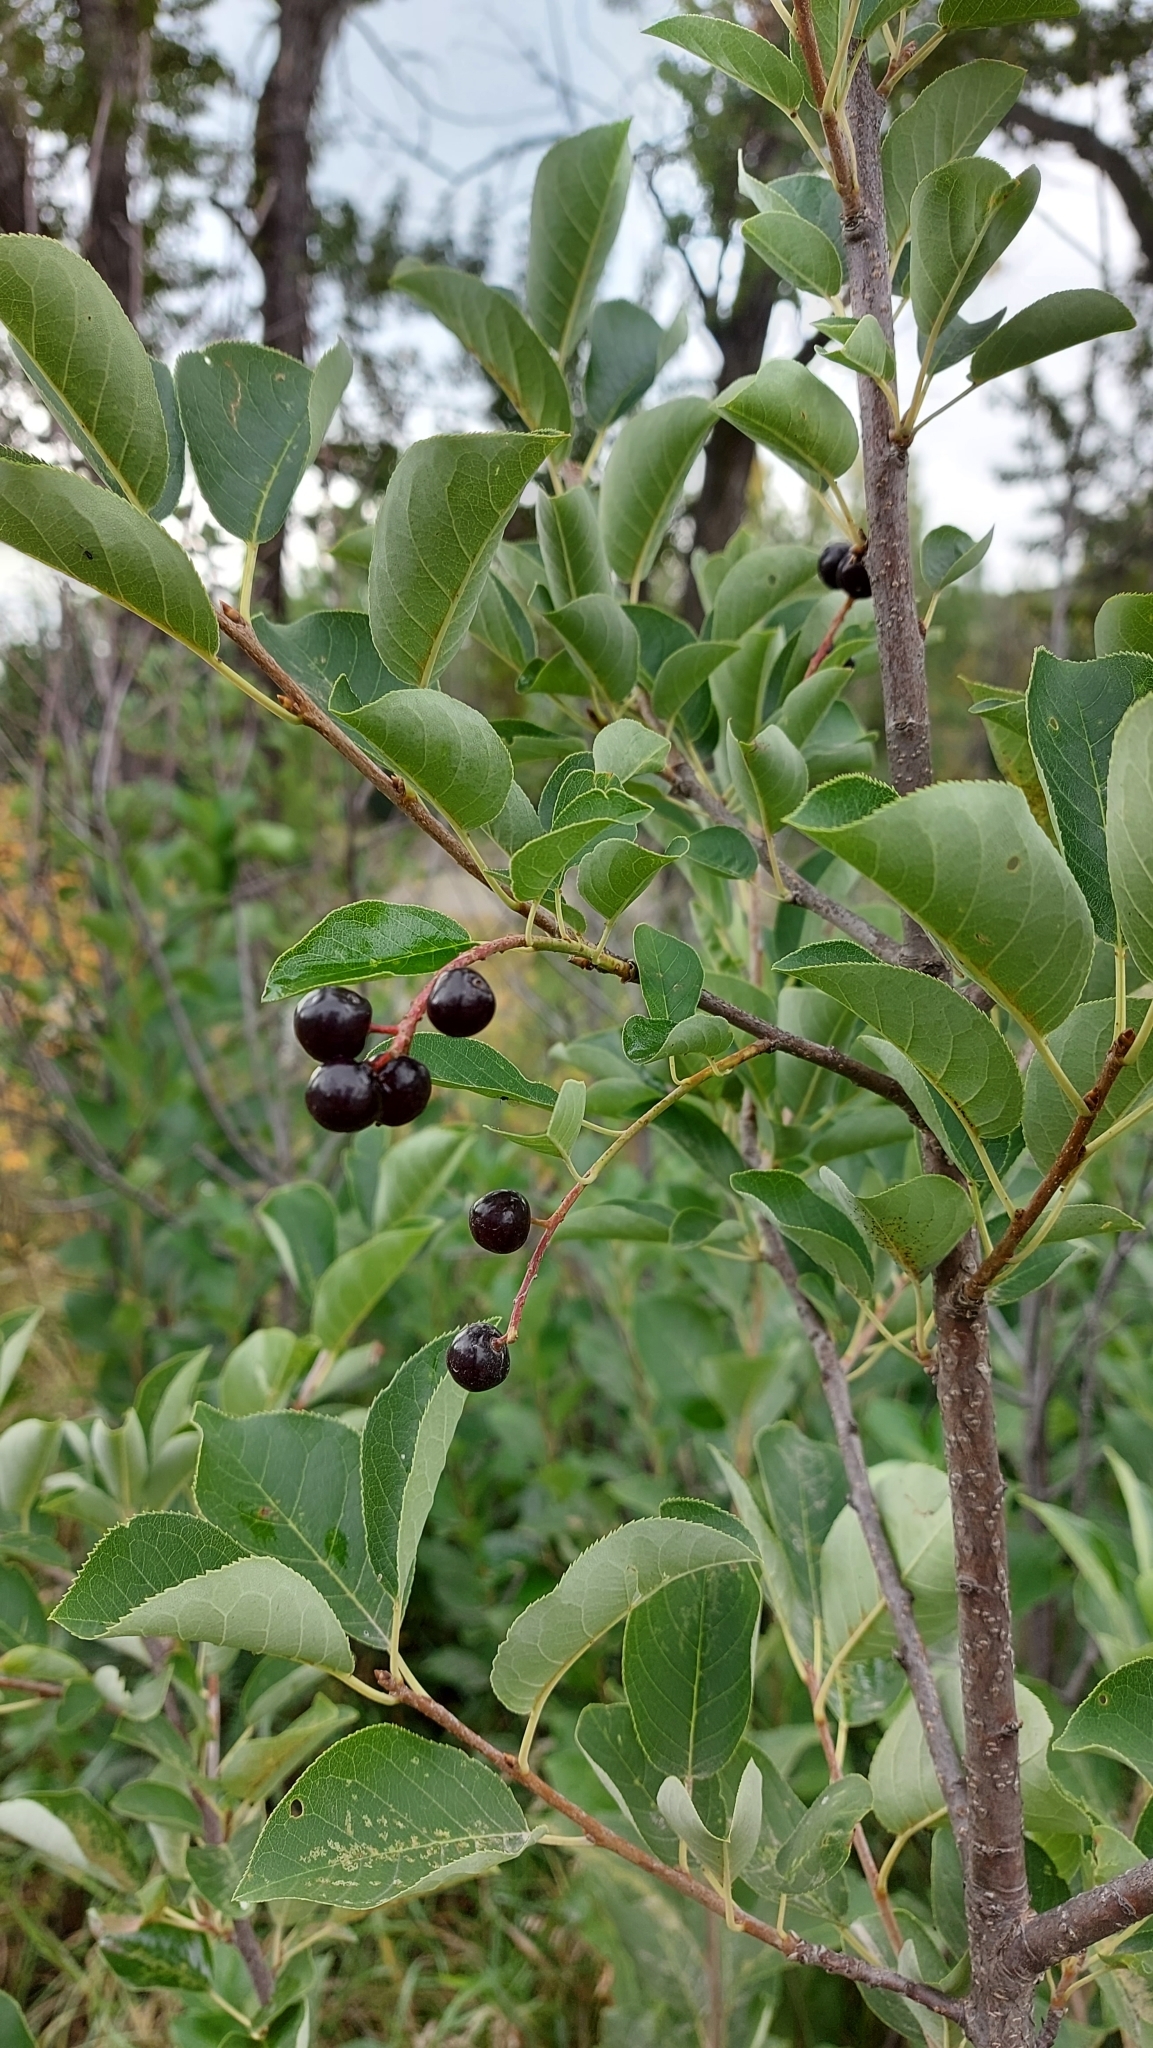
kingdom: Plantae
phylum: Tracheophyta
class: Magnoliopsida
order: Rosales
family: Rosaceae
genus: Prunus
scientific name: Prunus virginiana
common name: Chokecherry
